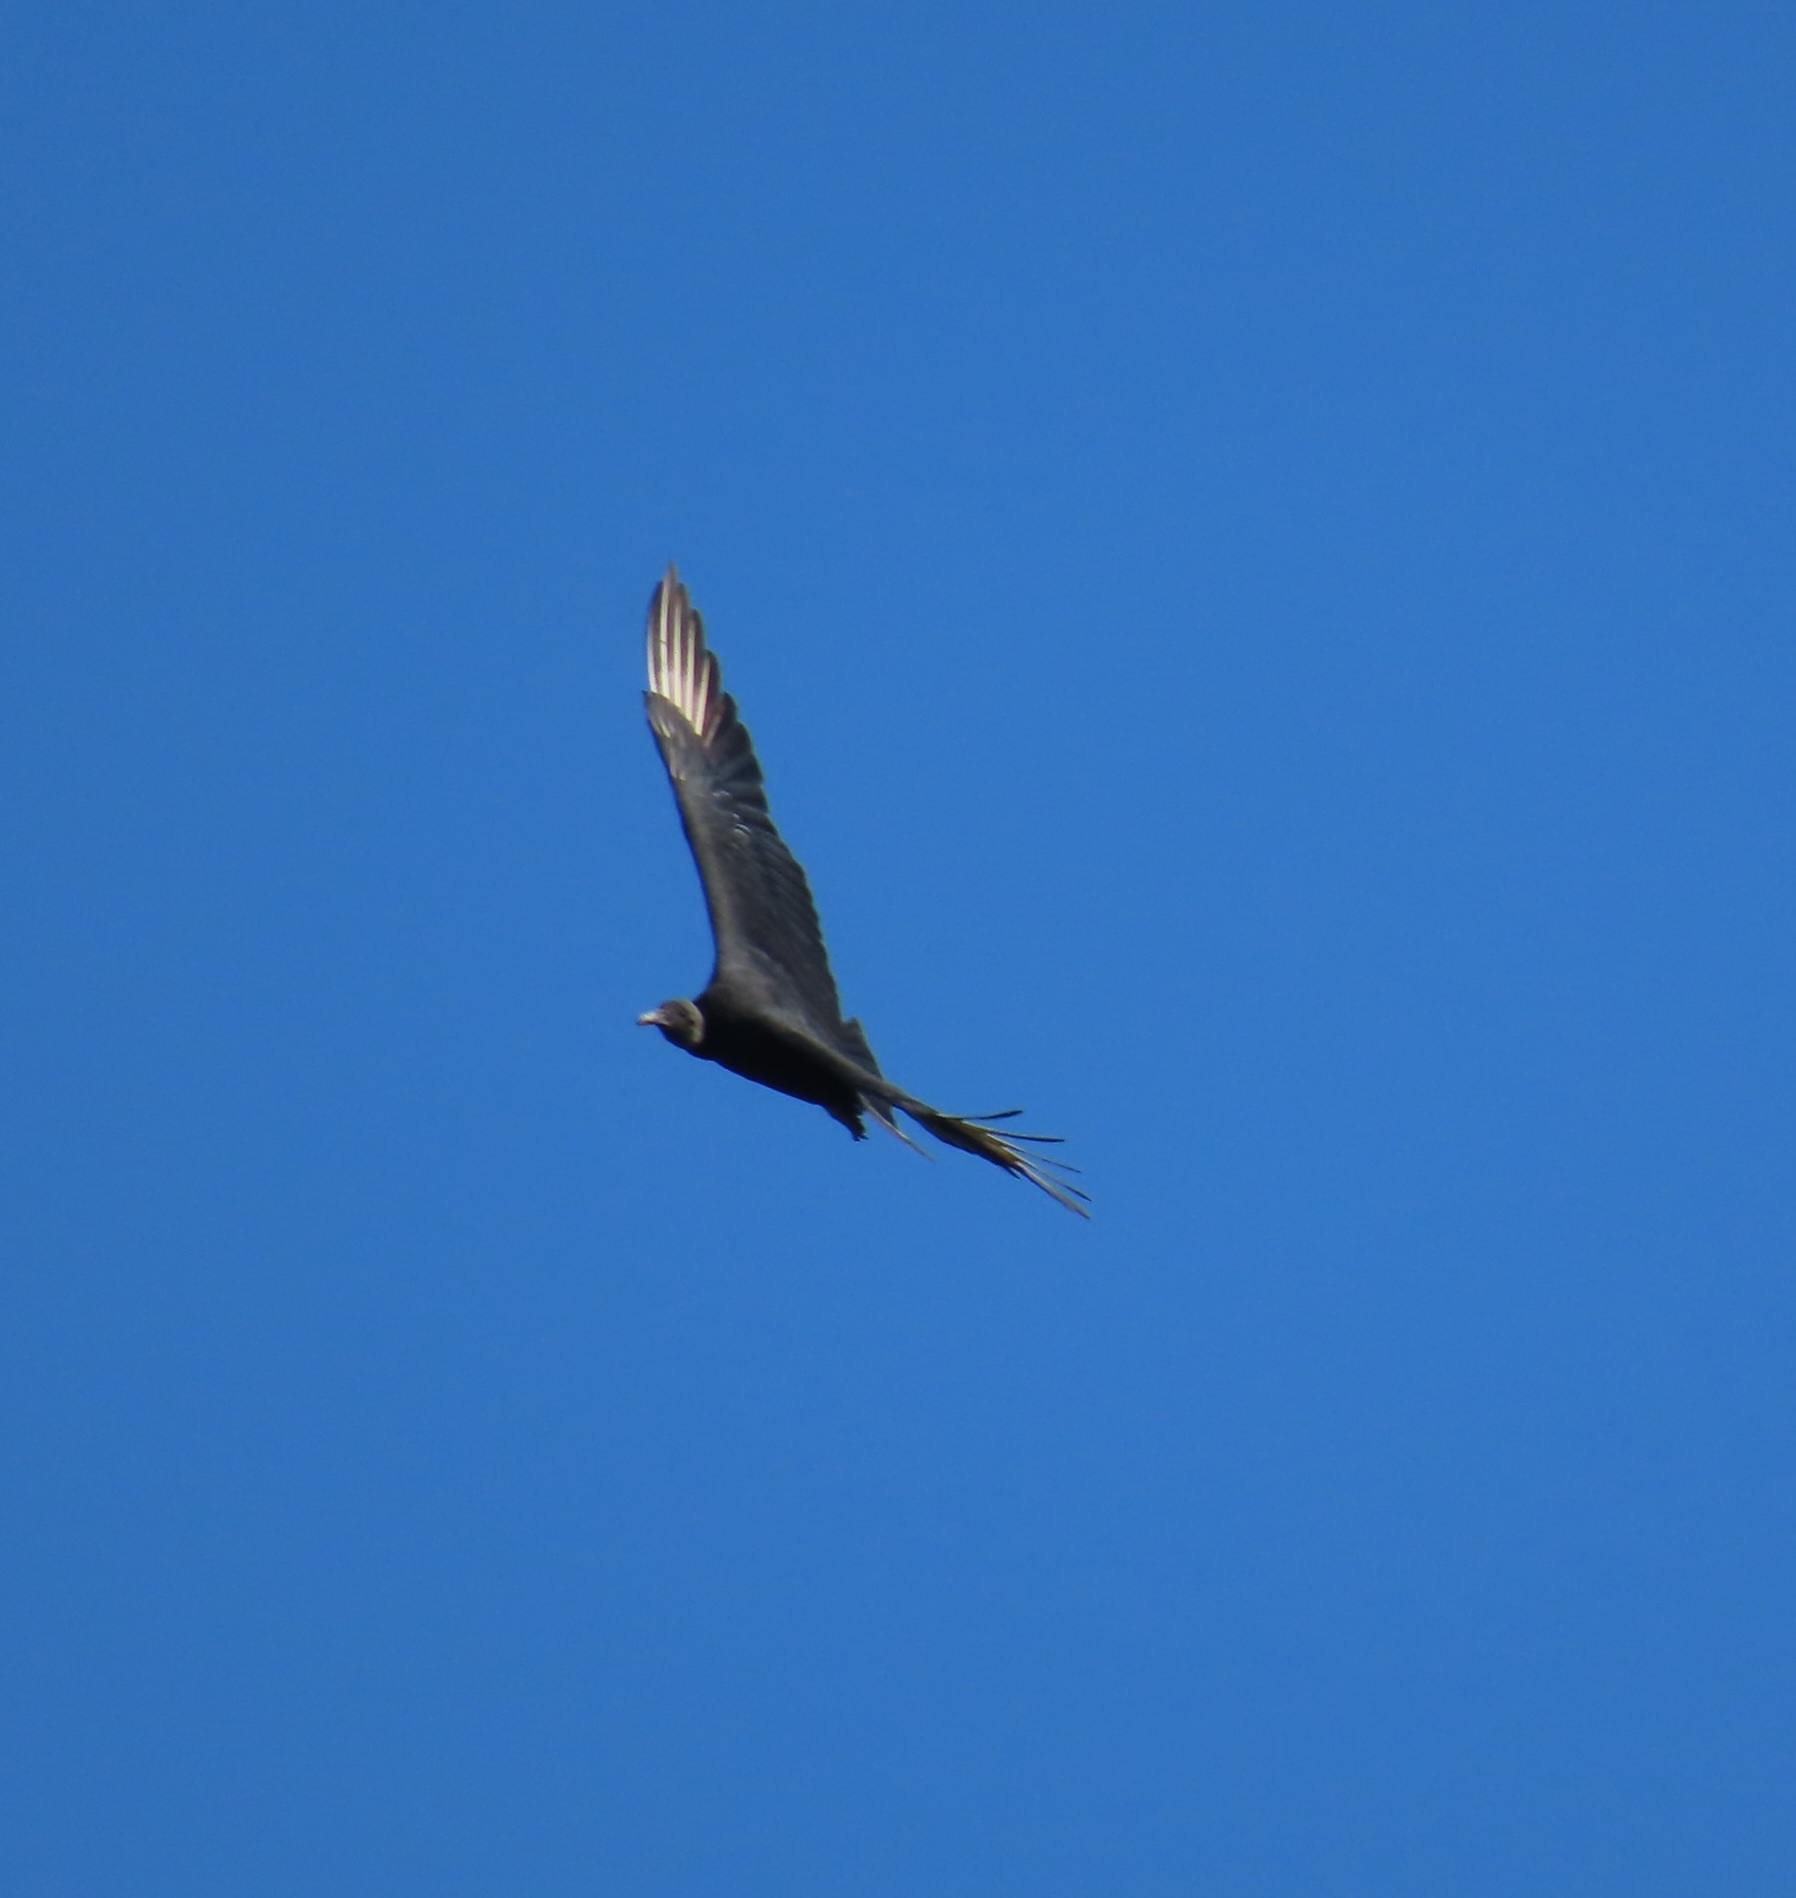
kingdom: Animalia
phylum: Chordata
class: Aves
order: Accipitriformes
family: Cathartidae
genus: Coragyps
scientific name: Coragyps atratus
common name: Black vulture
